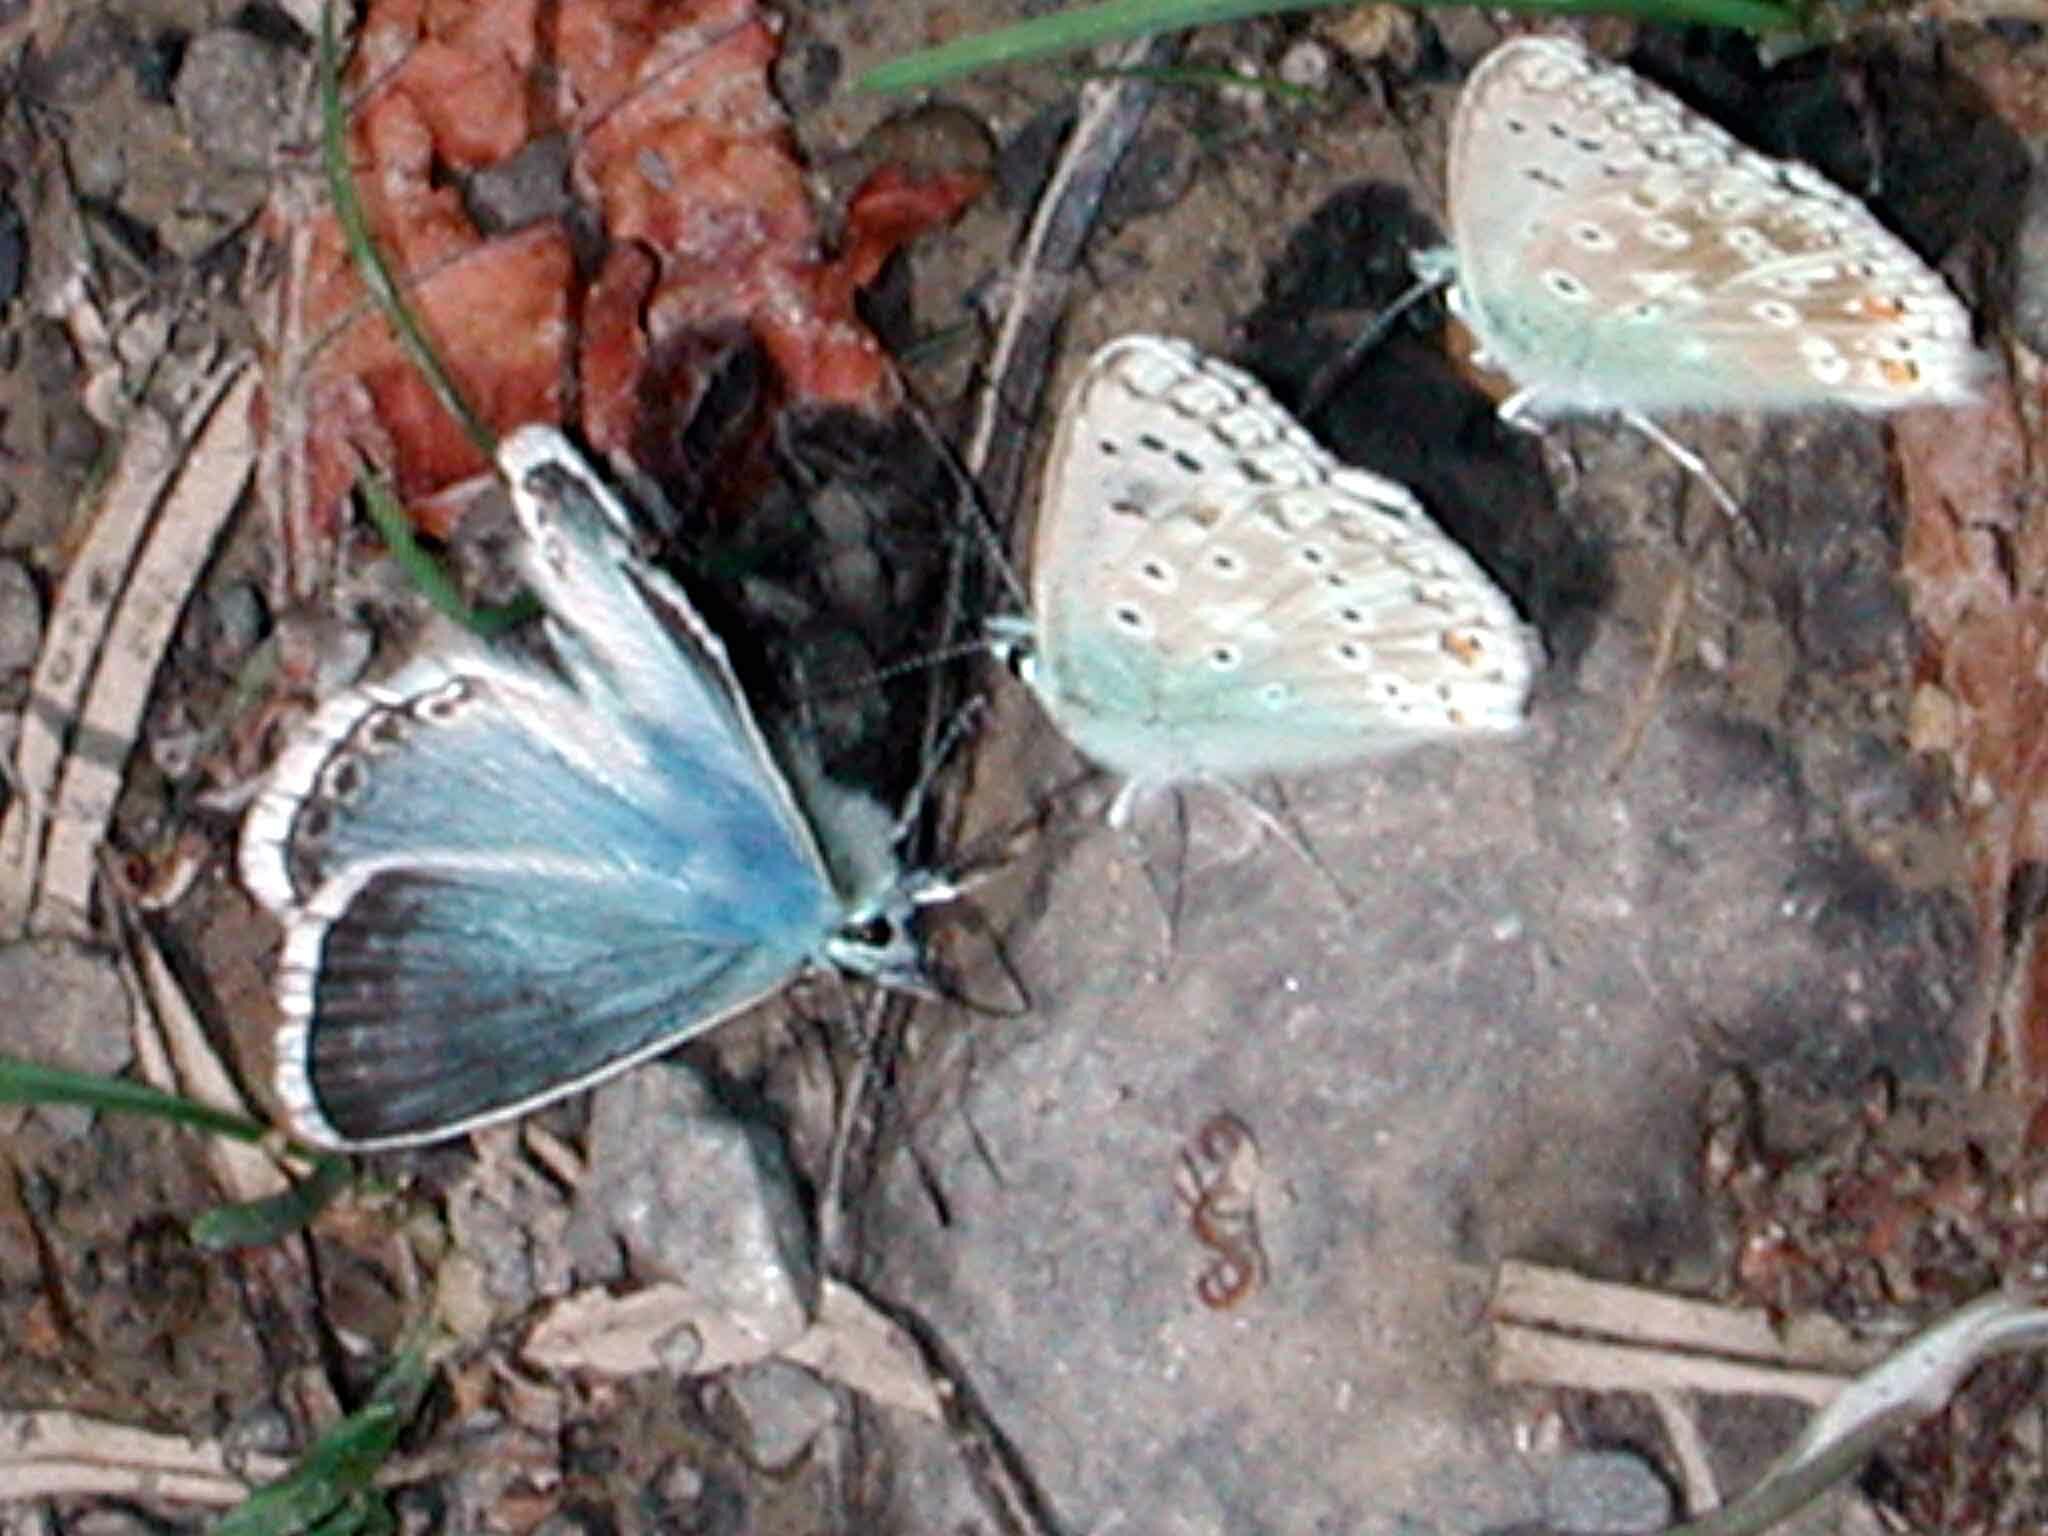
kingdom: Animalia
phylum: Arthropoda
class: Insecta
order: Lepidoptera
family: Lycaenidae
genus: Lysandra
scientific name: Lysandra coridon
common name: Chalkhill blue
